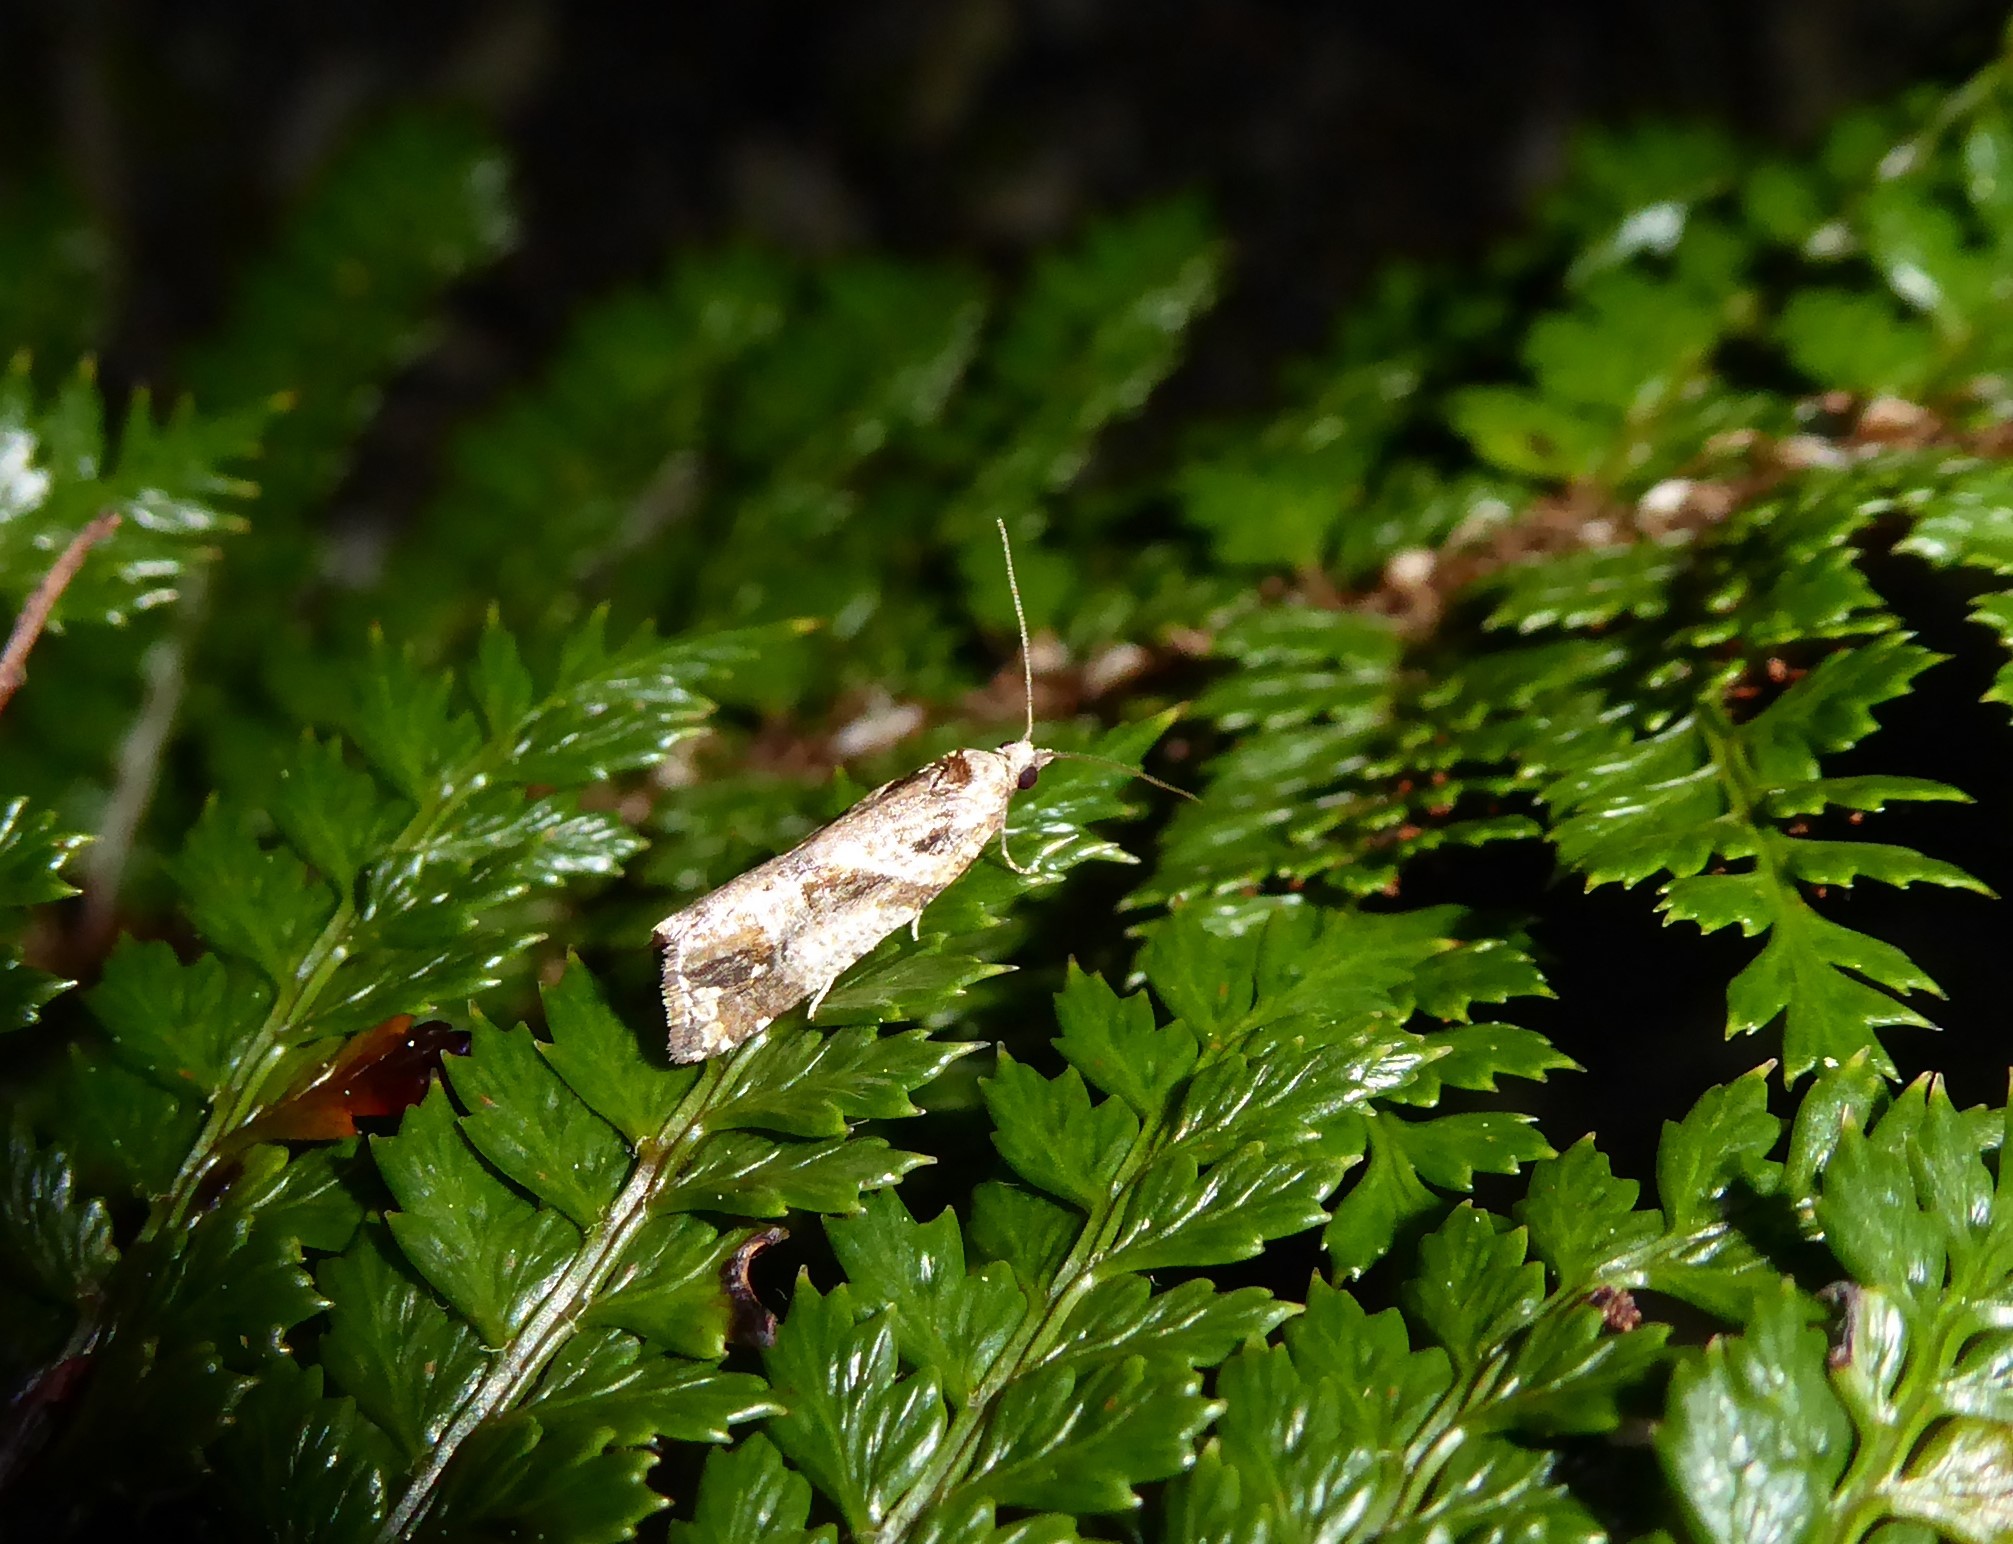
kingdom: Animalia
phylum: Arthropoda
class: Insecta
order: Lepidoptera
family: Tortricidae
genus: Pyrgotis
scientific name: Pyrgotis plagiatana
